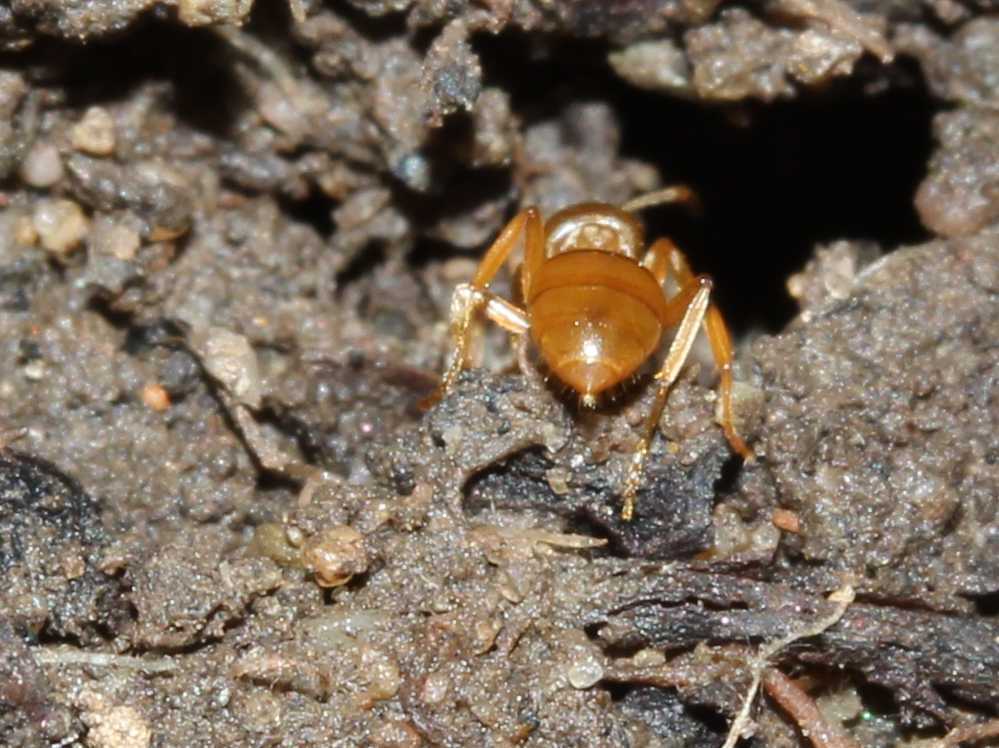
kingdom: Animalia
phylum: Arthropoda
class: Insecta
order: Hymenoptera
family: Formicidae
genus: Lasius
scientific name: Lasius
